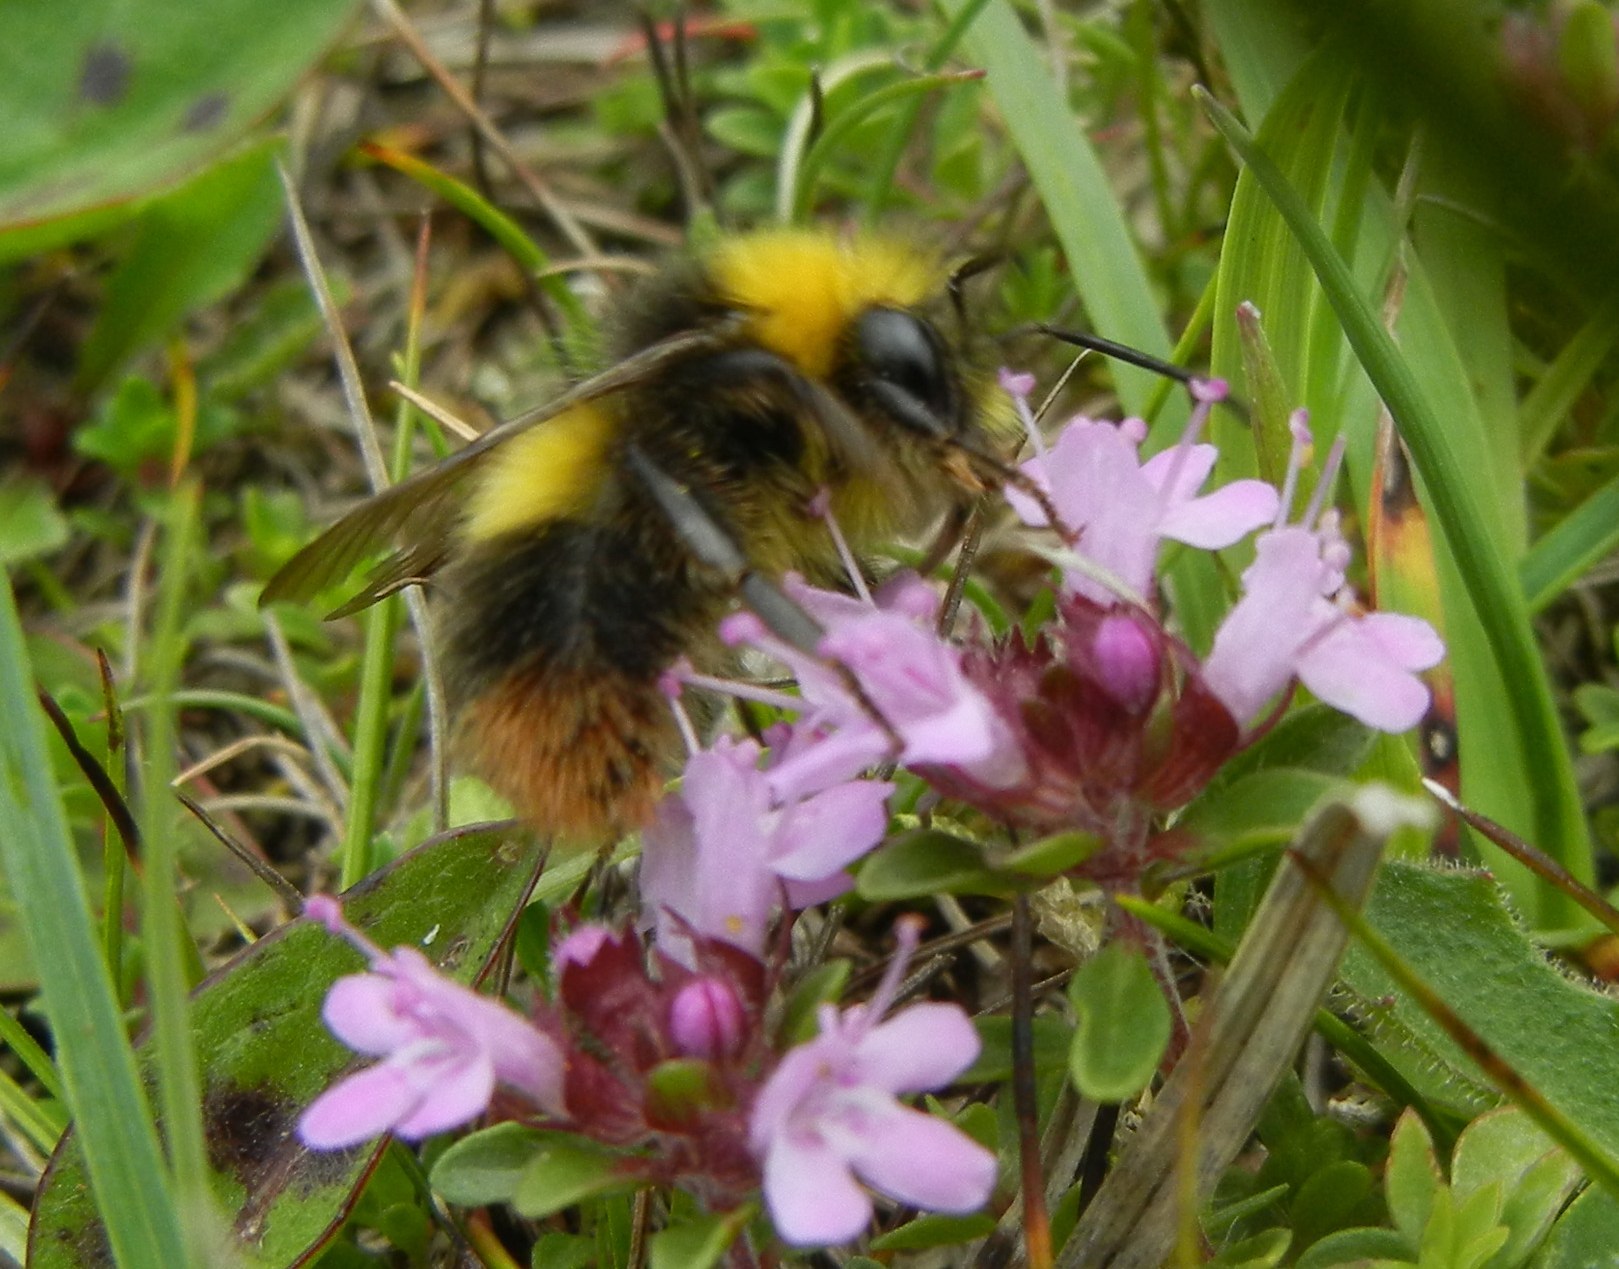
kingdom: Animalia
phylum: Arthropoda
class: Insecta
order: Hymenoptera
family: Apidae
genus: Bombus
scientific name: Bombus pratorum
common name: Early humble-bee
